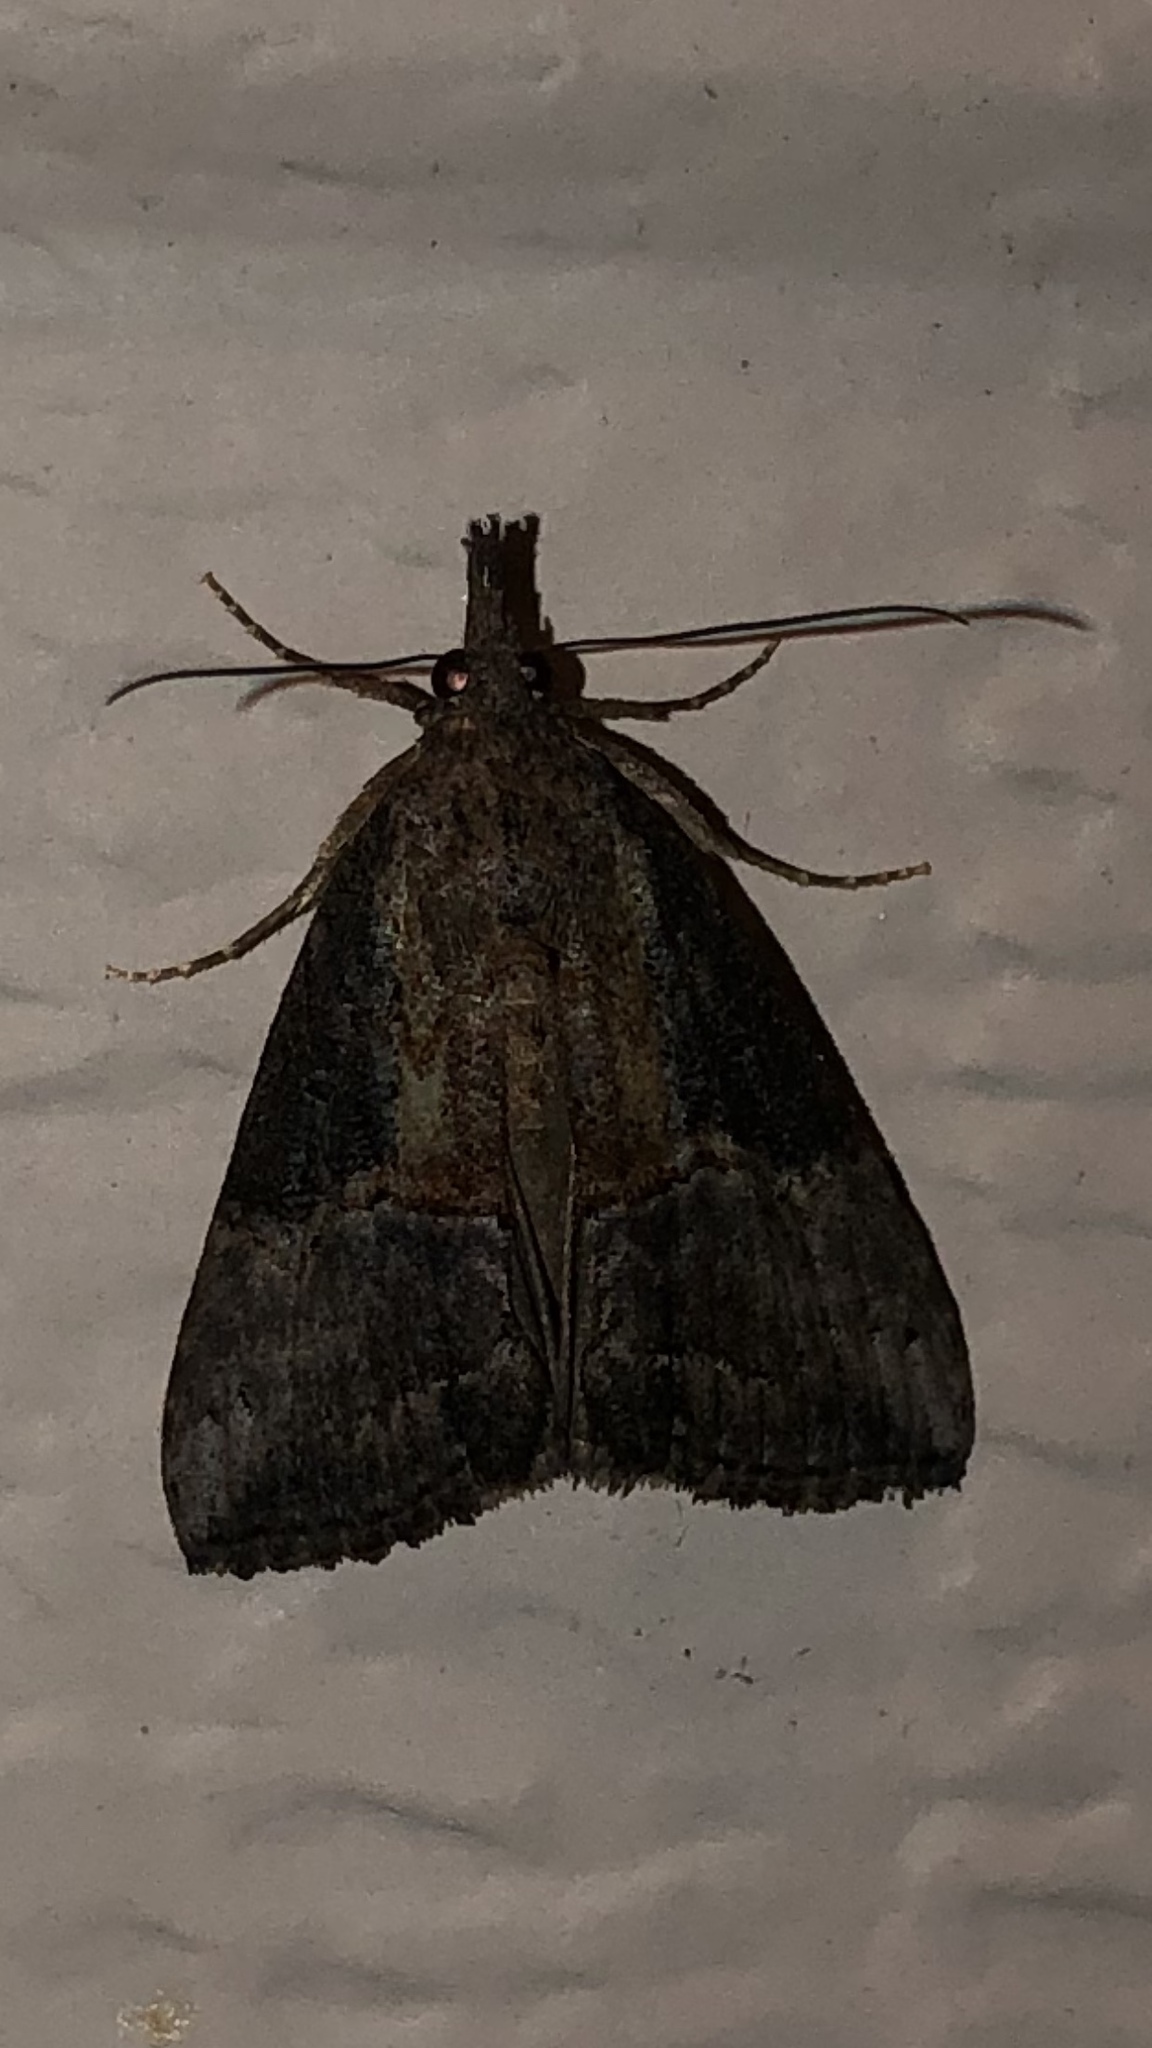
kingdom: Animalia
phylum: Arthropoda
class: Insecta
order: Lepidoptera
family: Erebidae
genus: Hypena
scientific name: Hypena scabra
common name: Green cloverworm
